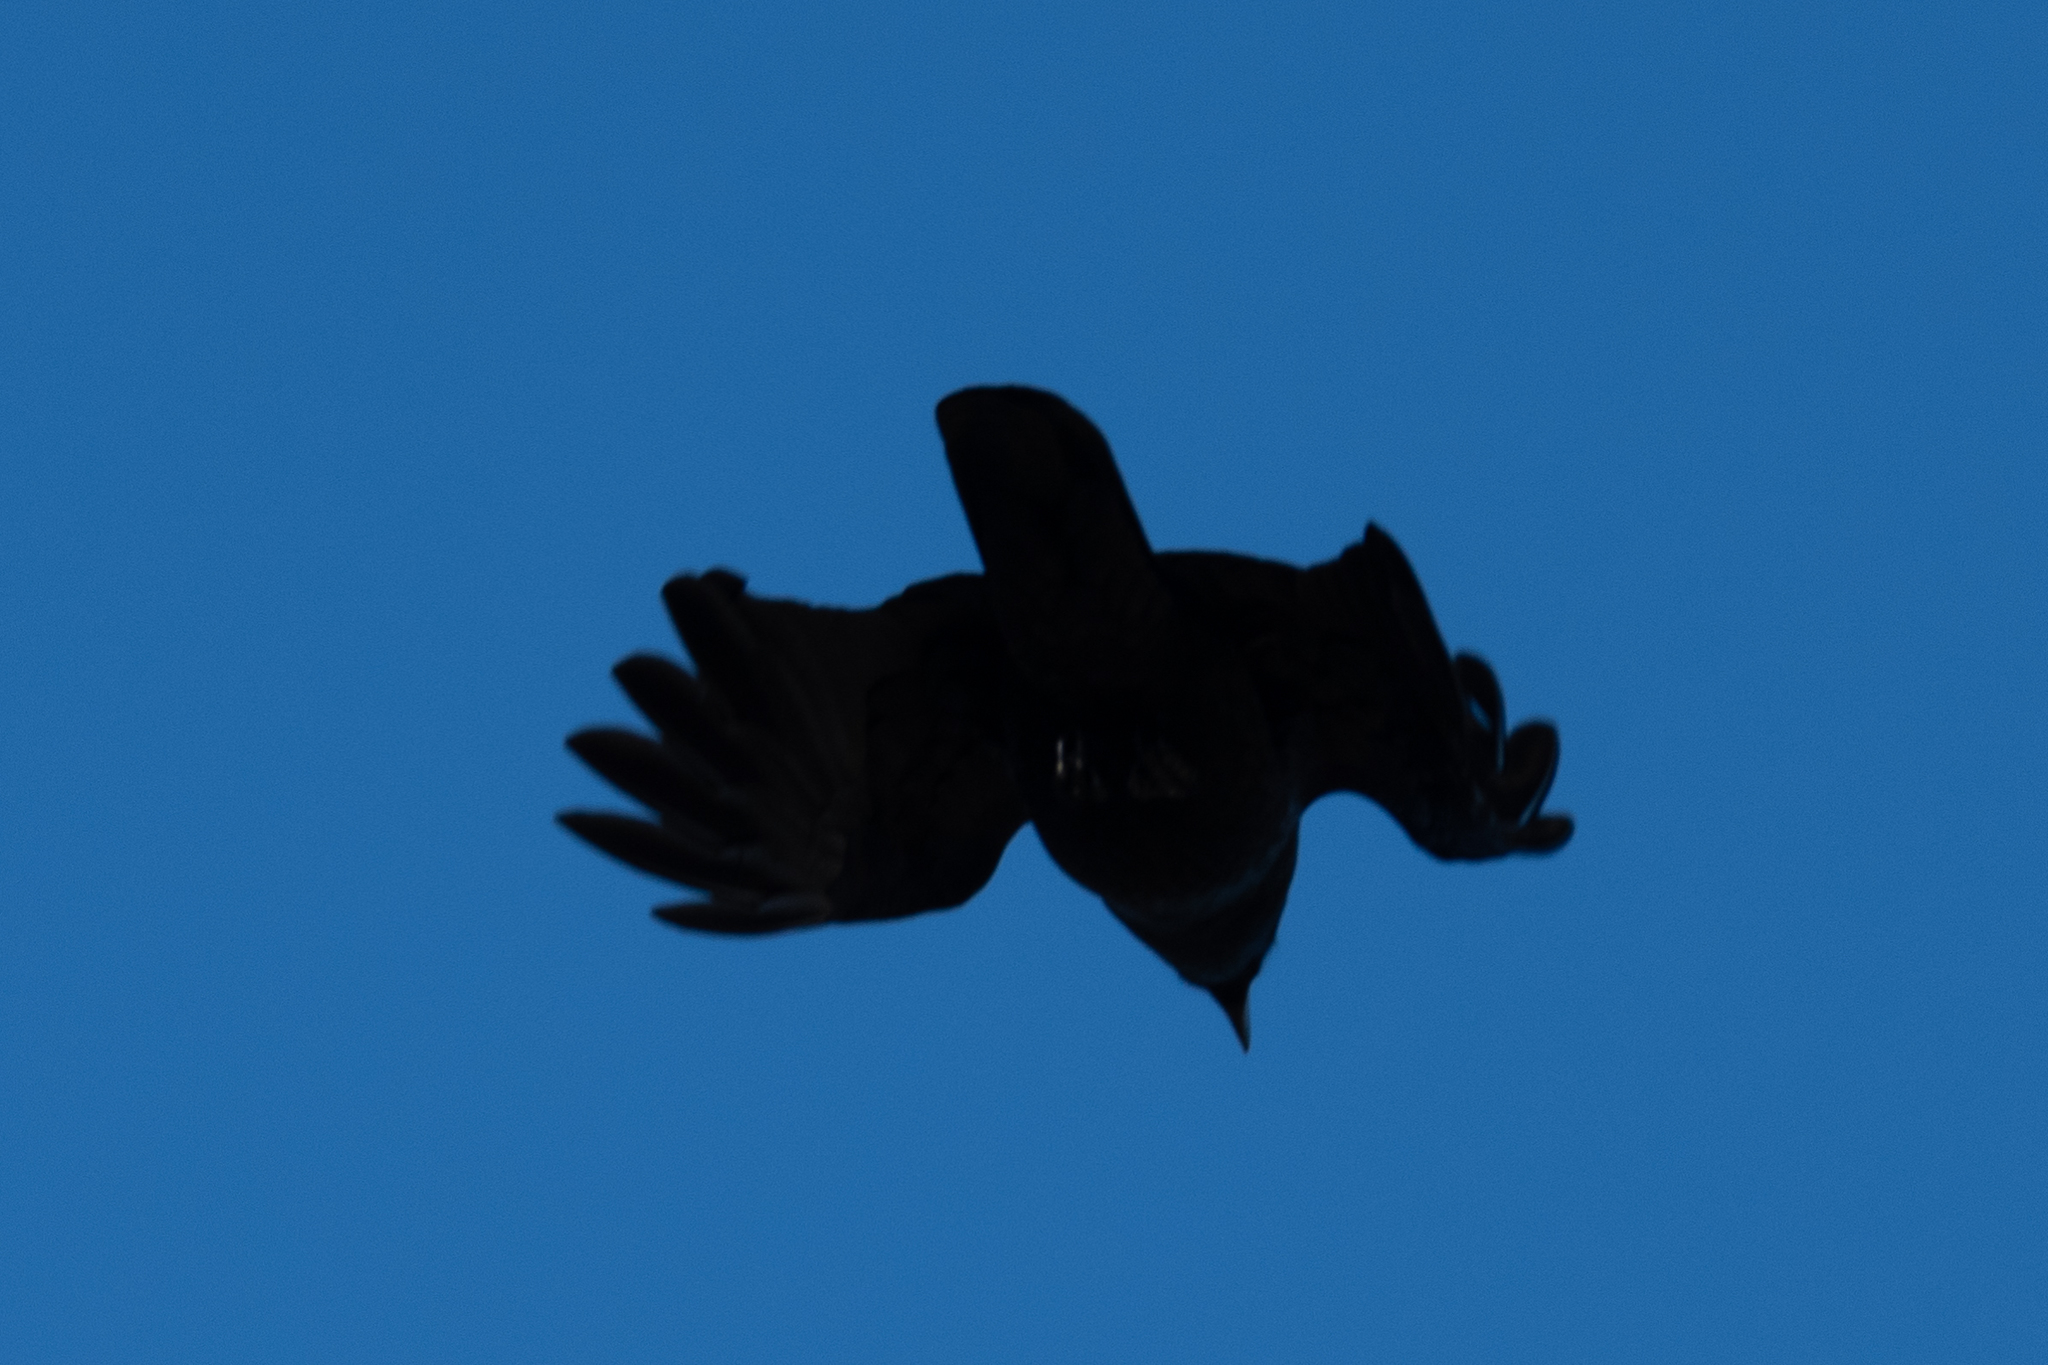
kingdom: Animalia
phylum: Chordata
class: Aves
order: Passeriformes
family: Corvidae
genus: Corvus
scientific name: Corvus brachyrhynchos
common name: American crow
